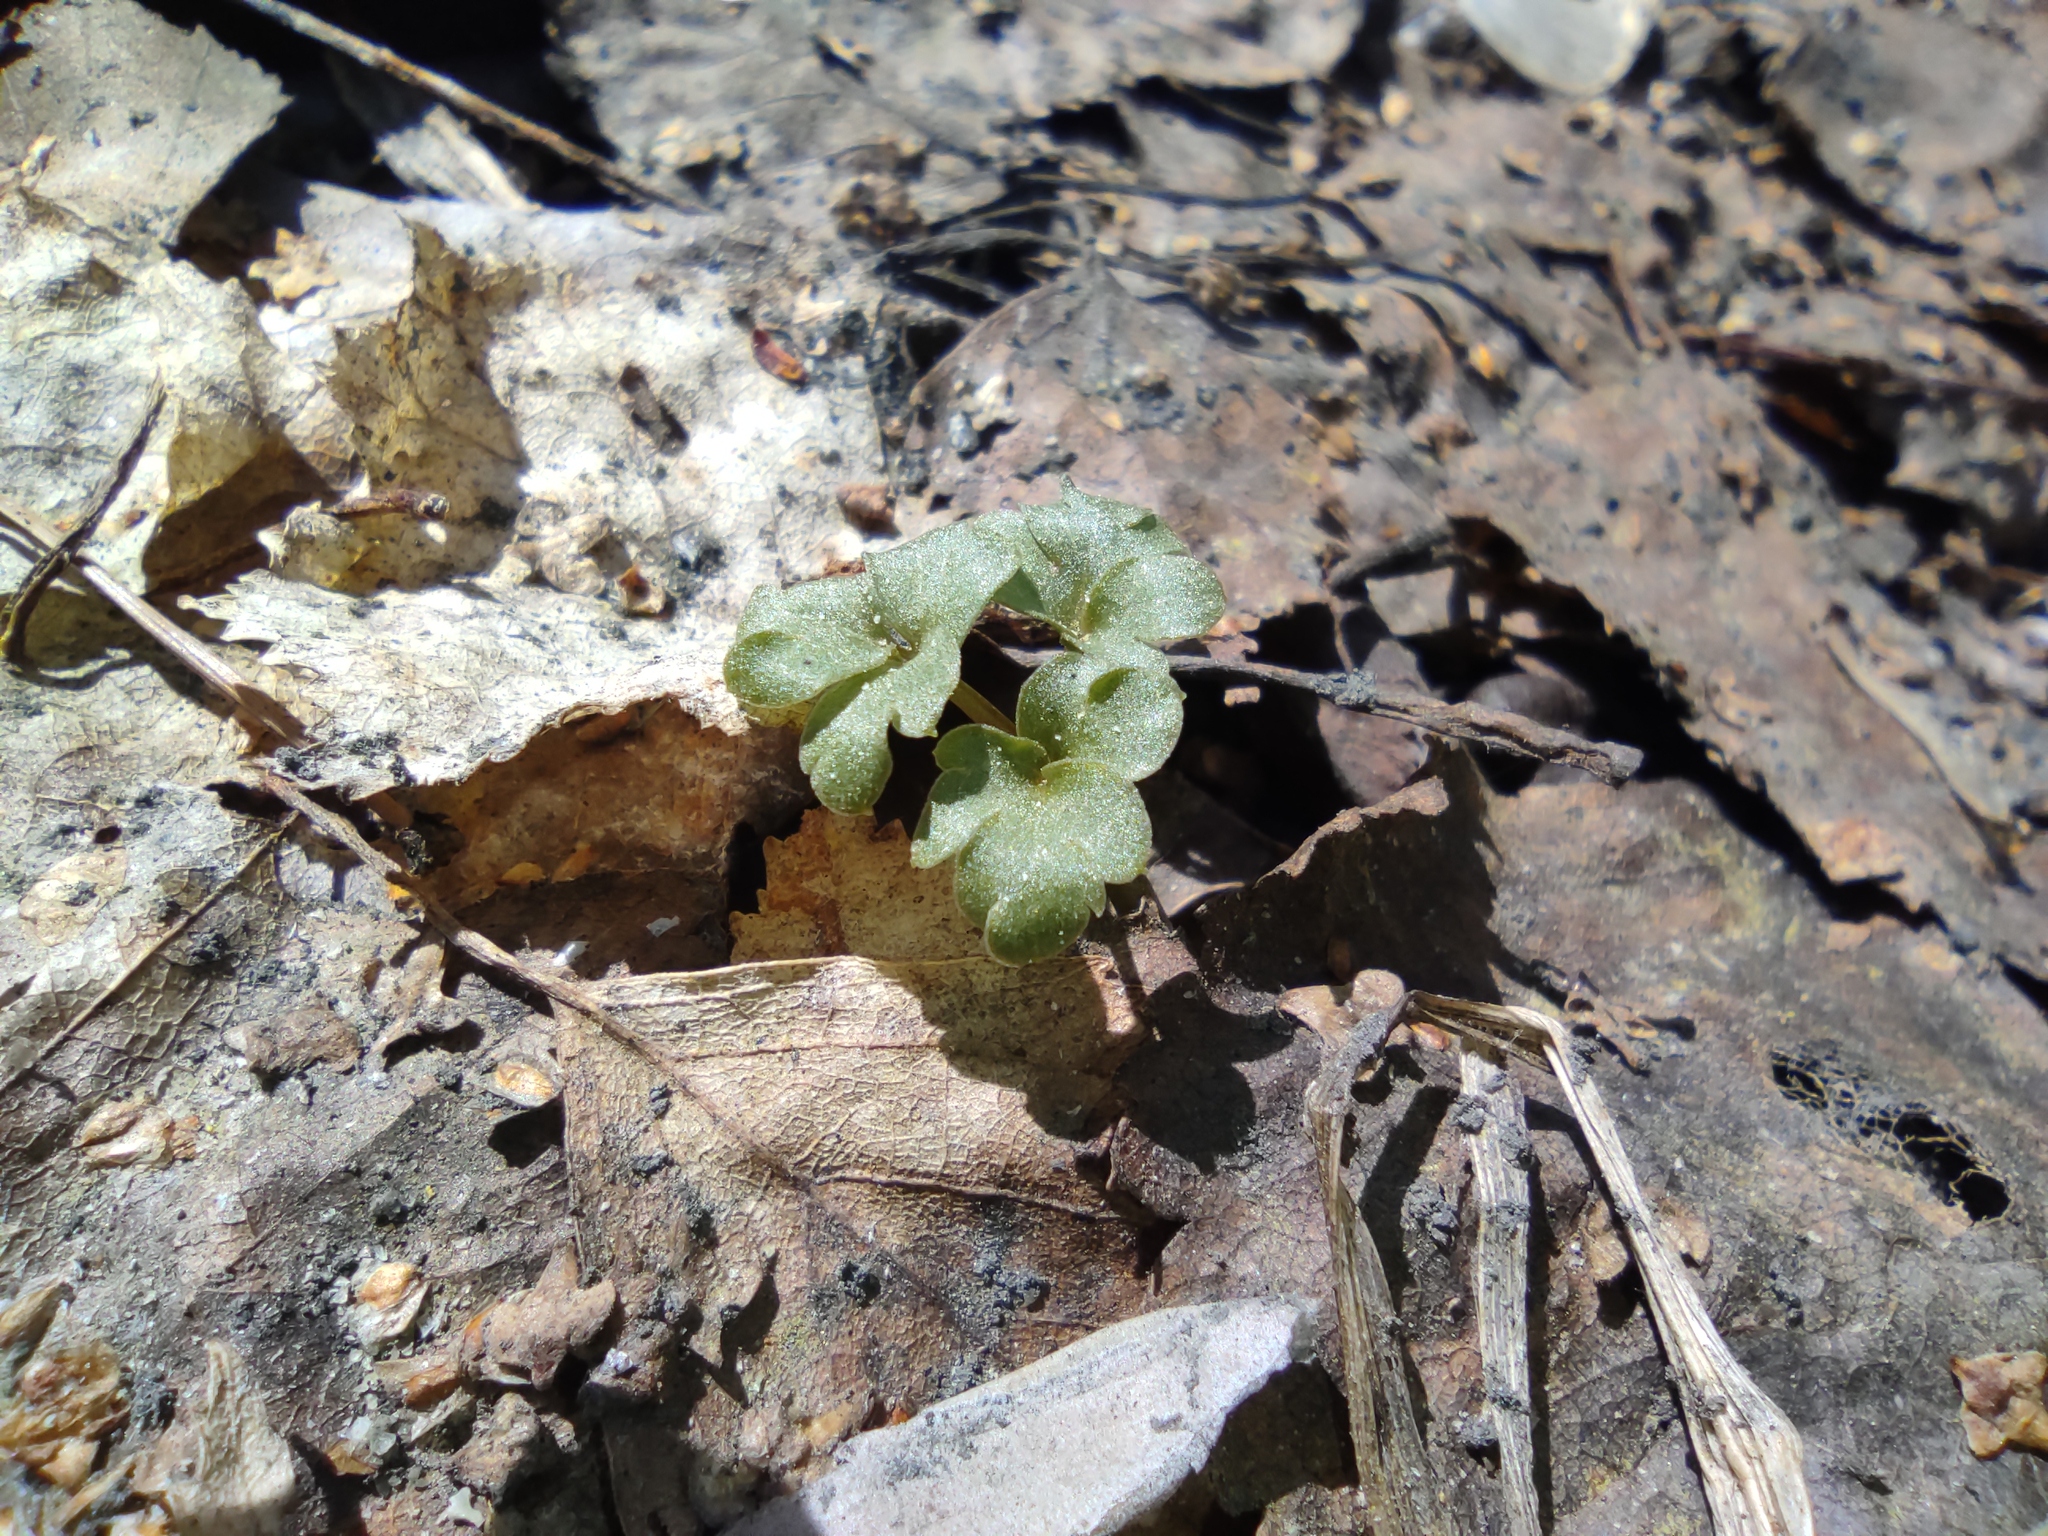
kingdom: Plantae
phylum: Tracheophyta
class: Magnoliopsida
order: Dipsacales
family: Viburnaceae
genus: Adoxa
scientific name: Adoxa moschatellina
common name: Moschatel
